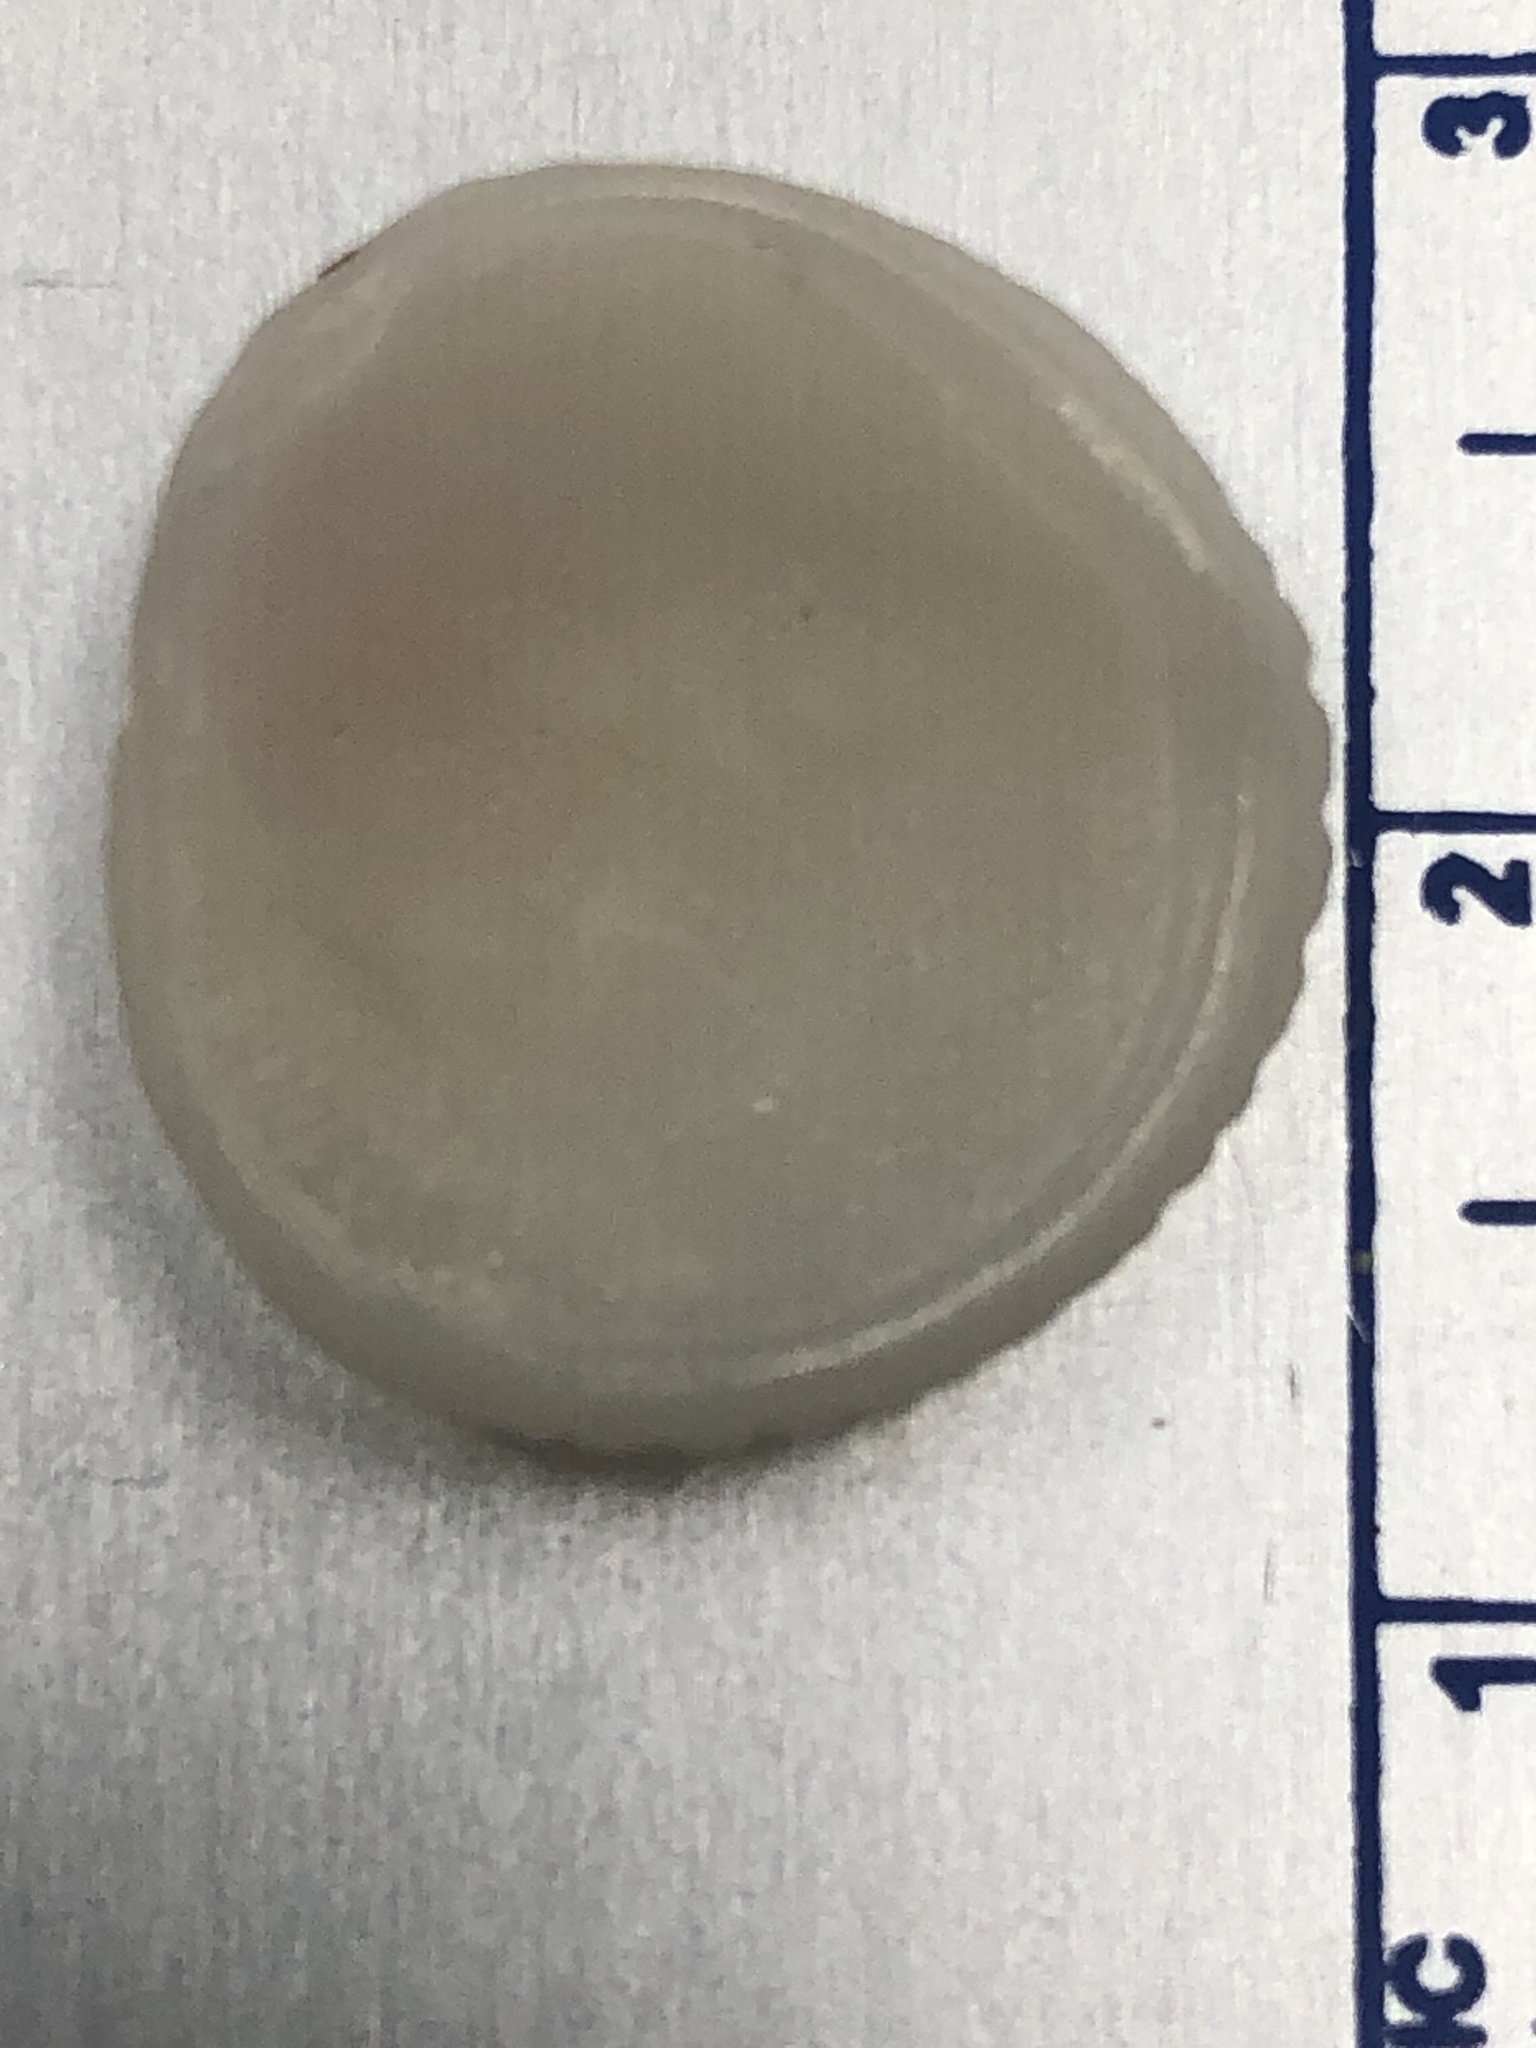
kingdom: Animalia
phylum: Mollusca
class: Bivalvia
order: Venerida
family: Chamidae
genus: Chama
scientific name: Chama florida
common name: Blushed jewelbox
